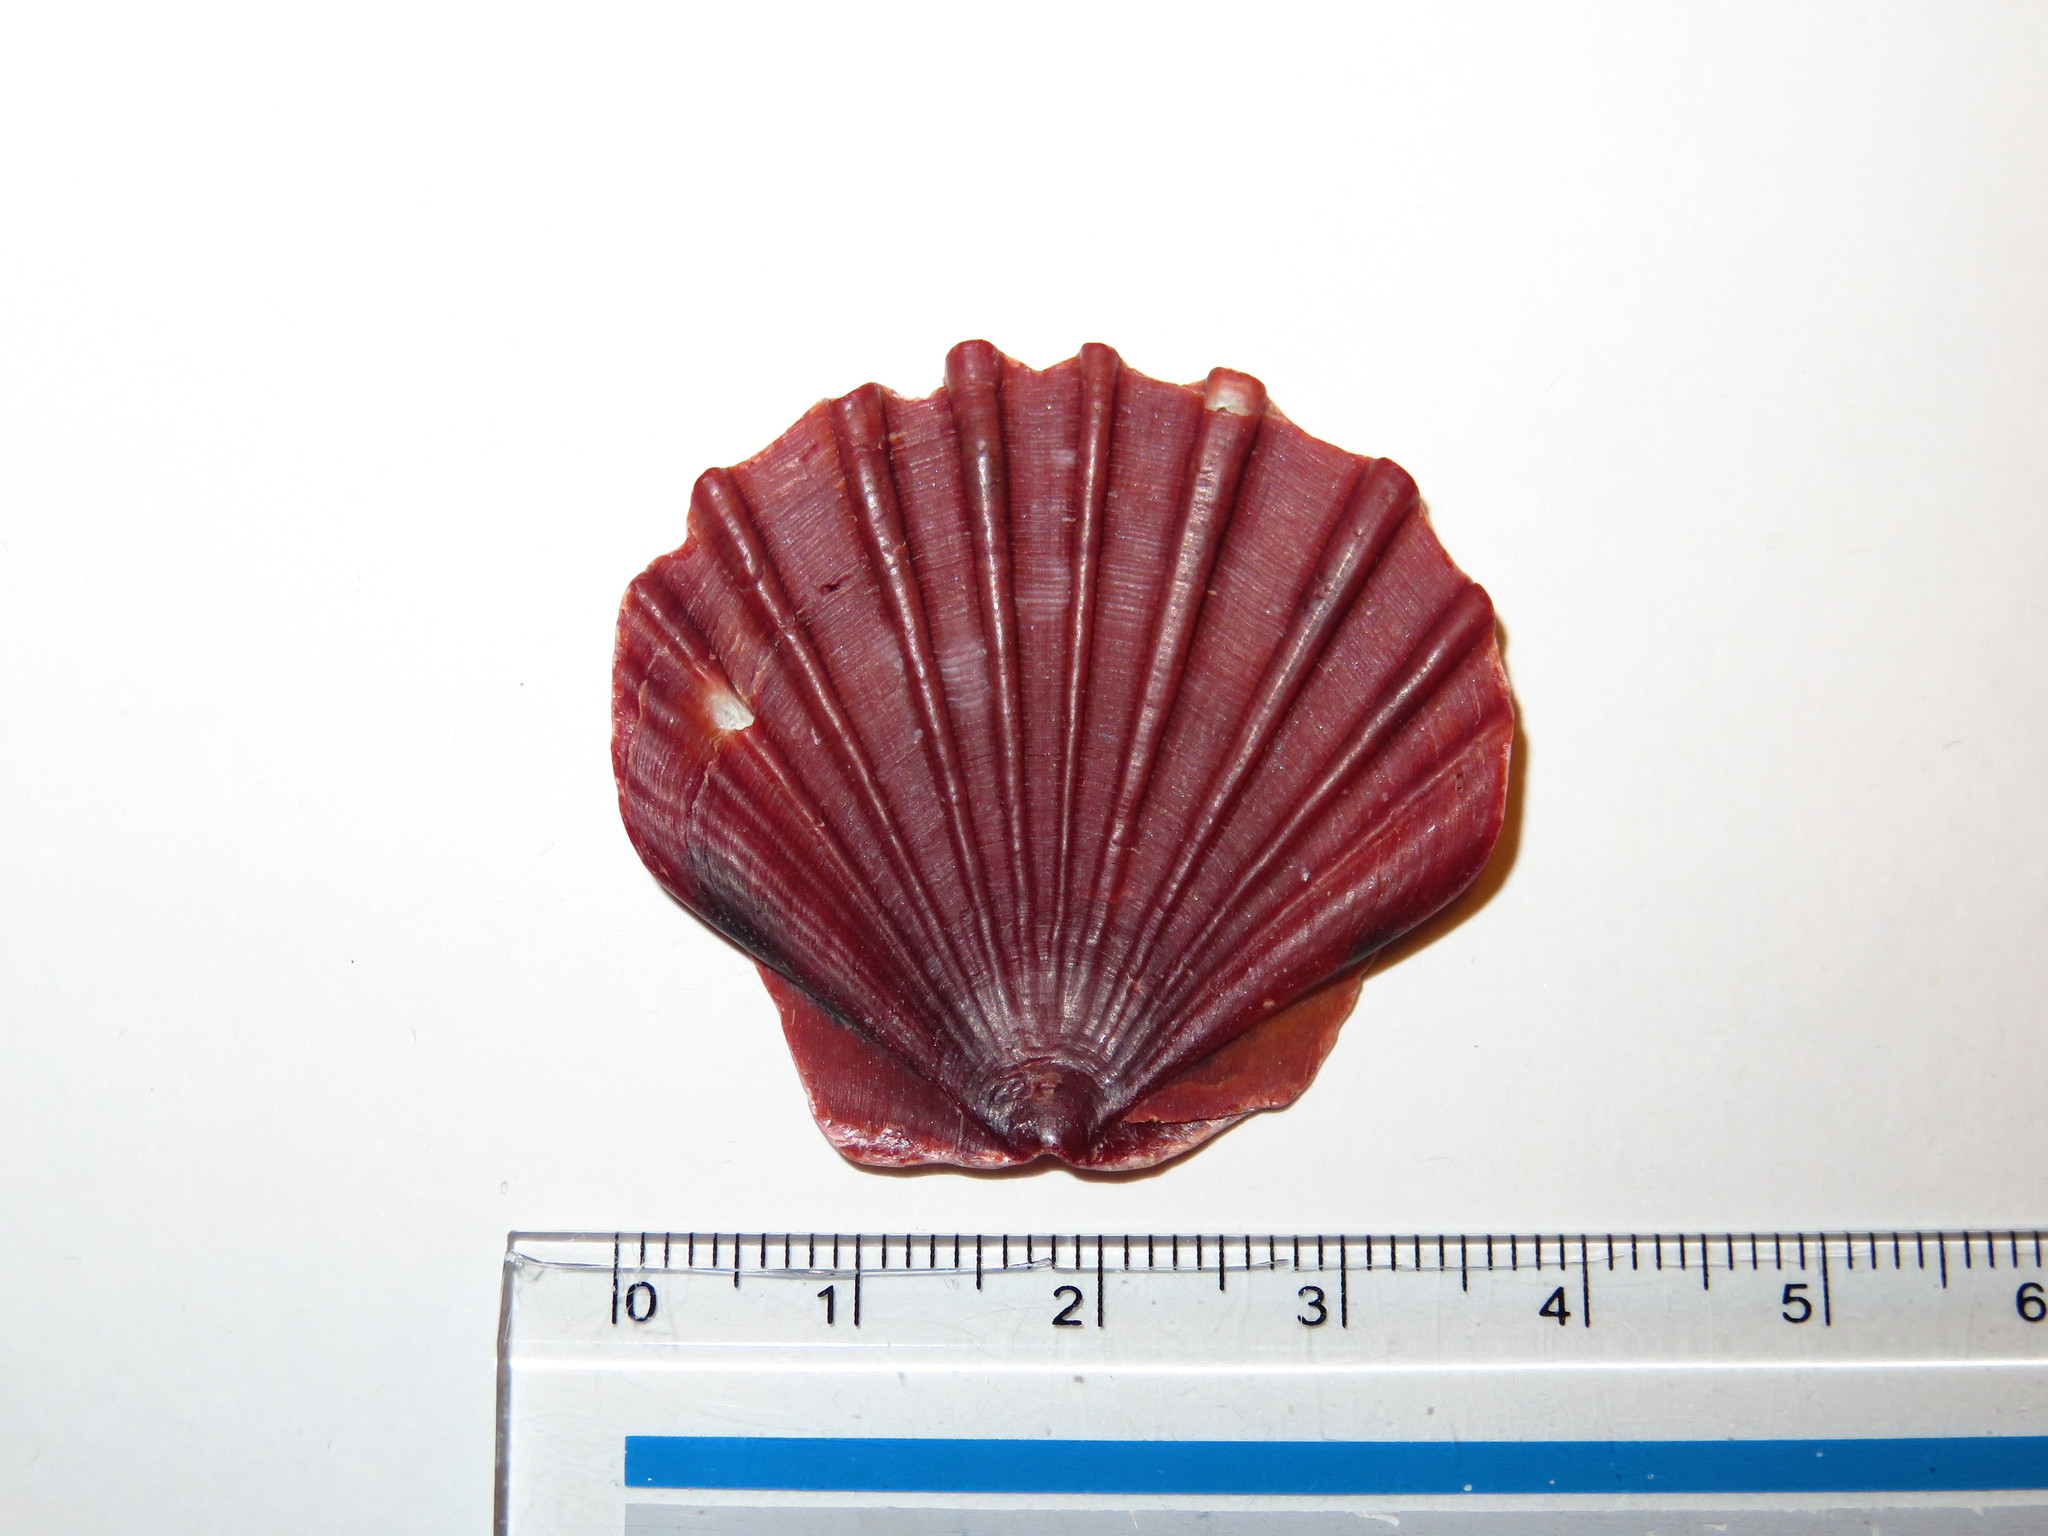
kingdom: Animalia
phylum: Mollusca
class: Bivalvia
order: Pectinida
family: Pectinidae
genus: Pecten
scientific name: Pecten albicans
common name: Japanese baking scallop
